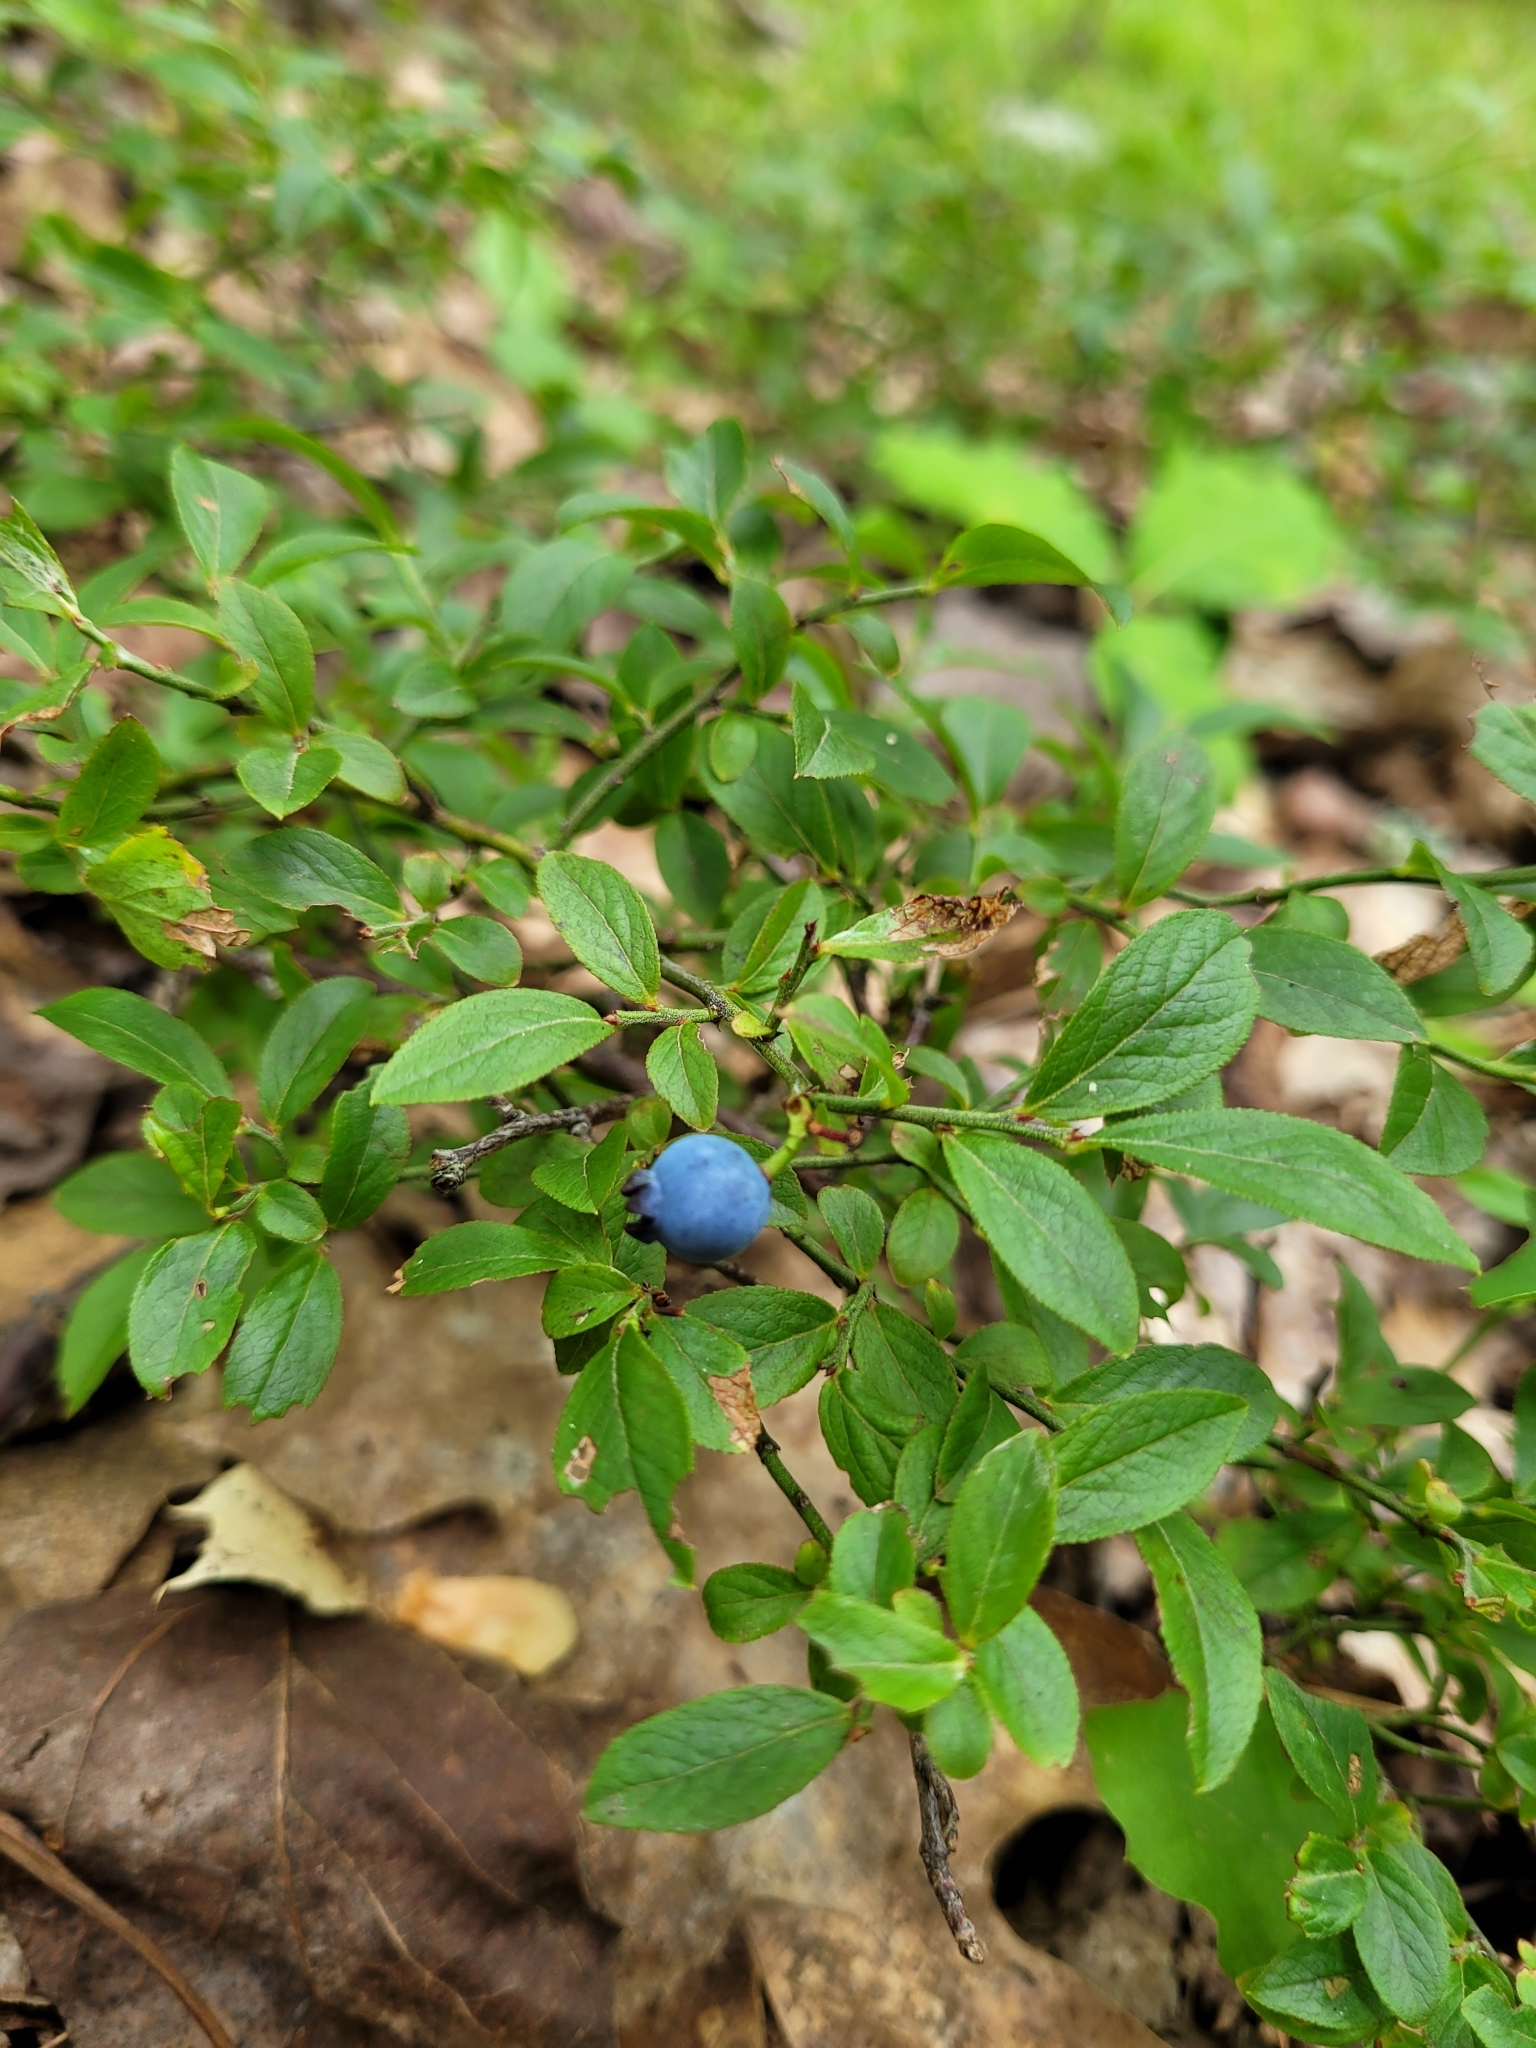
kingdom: Plantae
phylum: Tracheophyta
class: Magnoliopsida
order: Ericales
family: Ericaceae
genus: Vaccinium
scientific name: Vaccinium angustifolium
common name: Early lowbush blueberry
